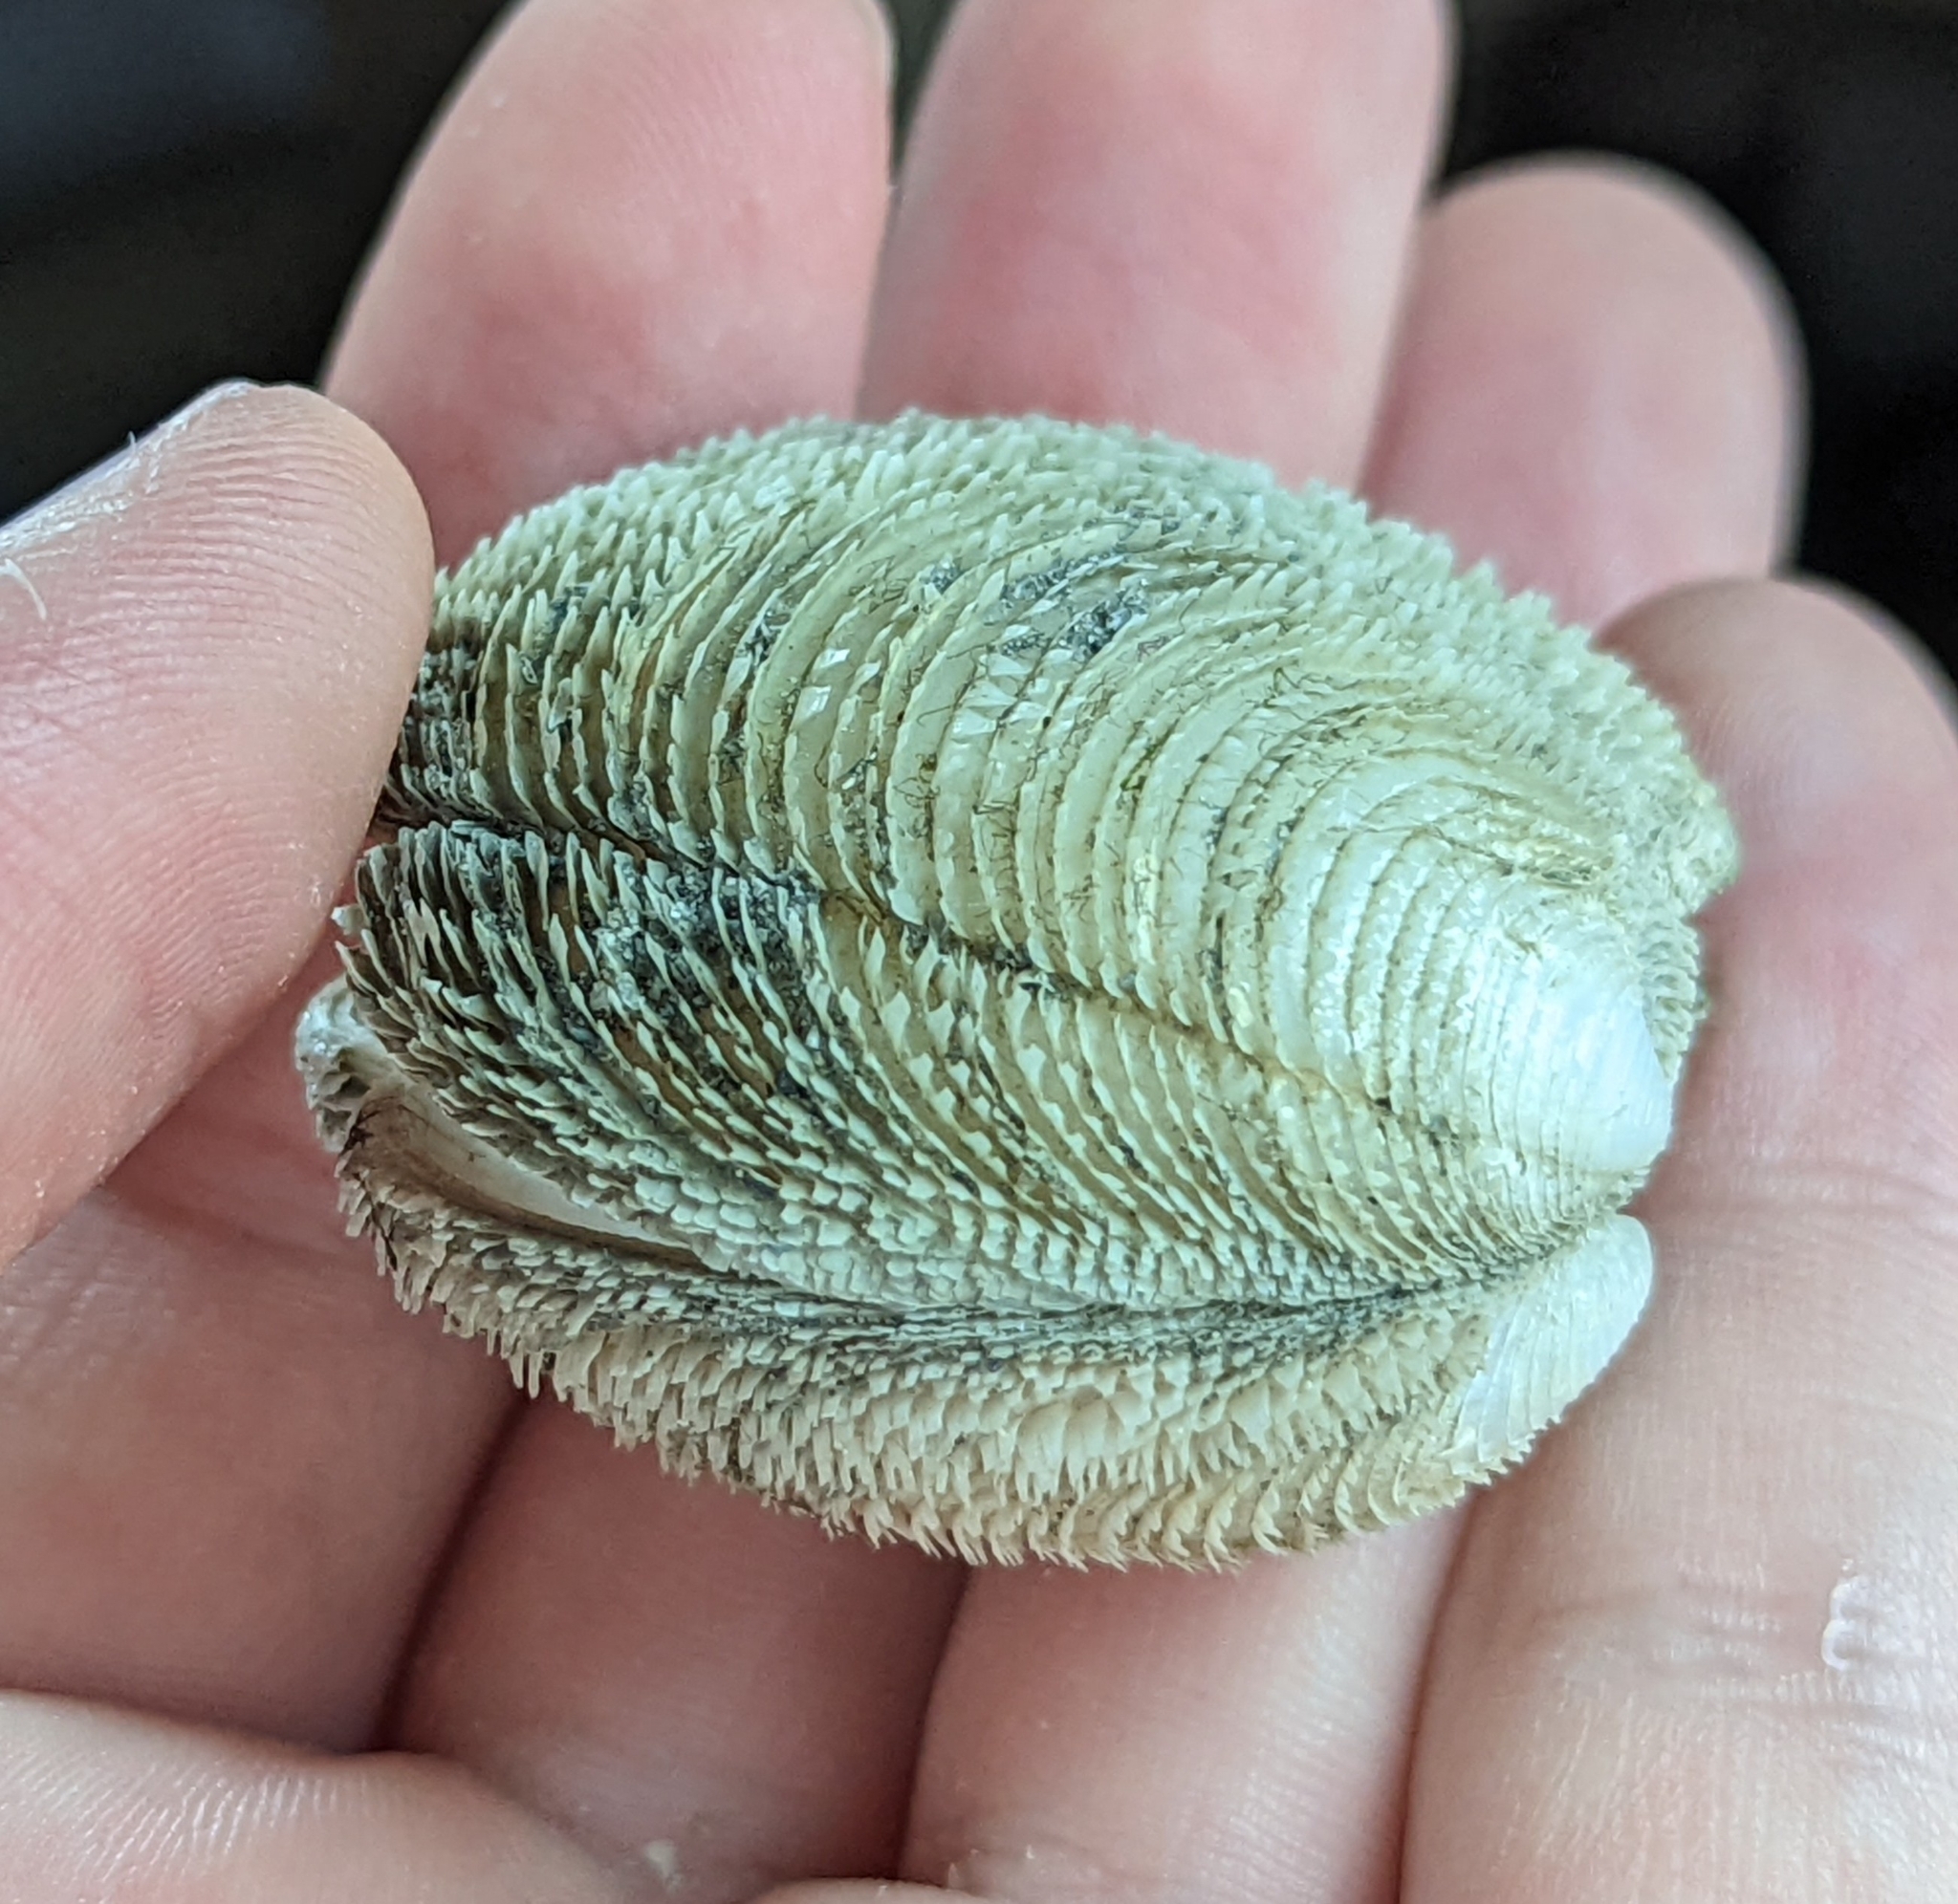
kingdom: Animalia
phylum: Mollusca
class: Bivalvia
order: Lucinida
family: Lucinidae
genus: Lucina
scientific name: Lucina pensylvanica
